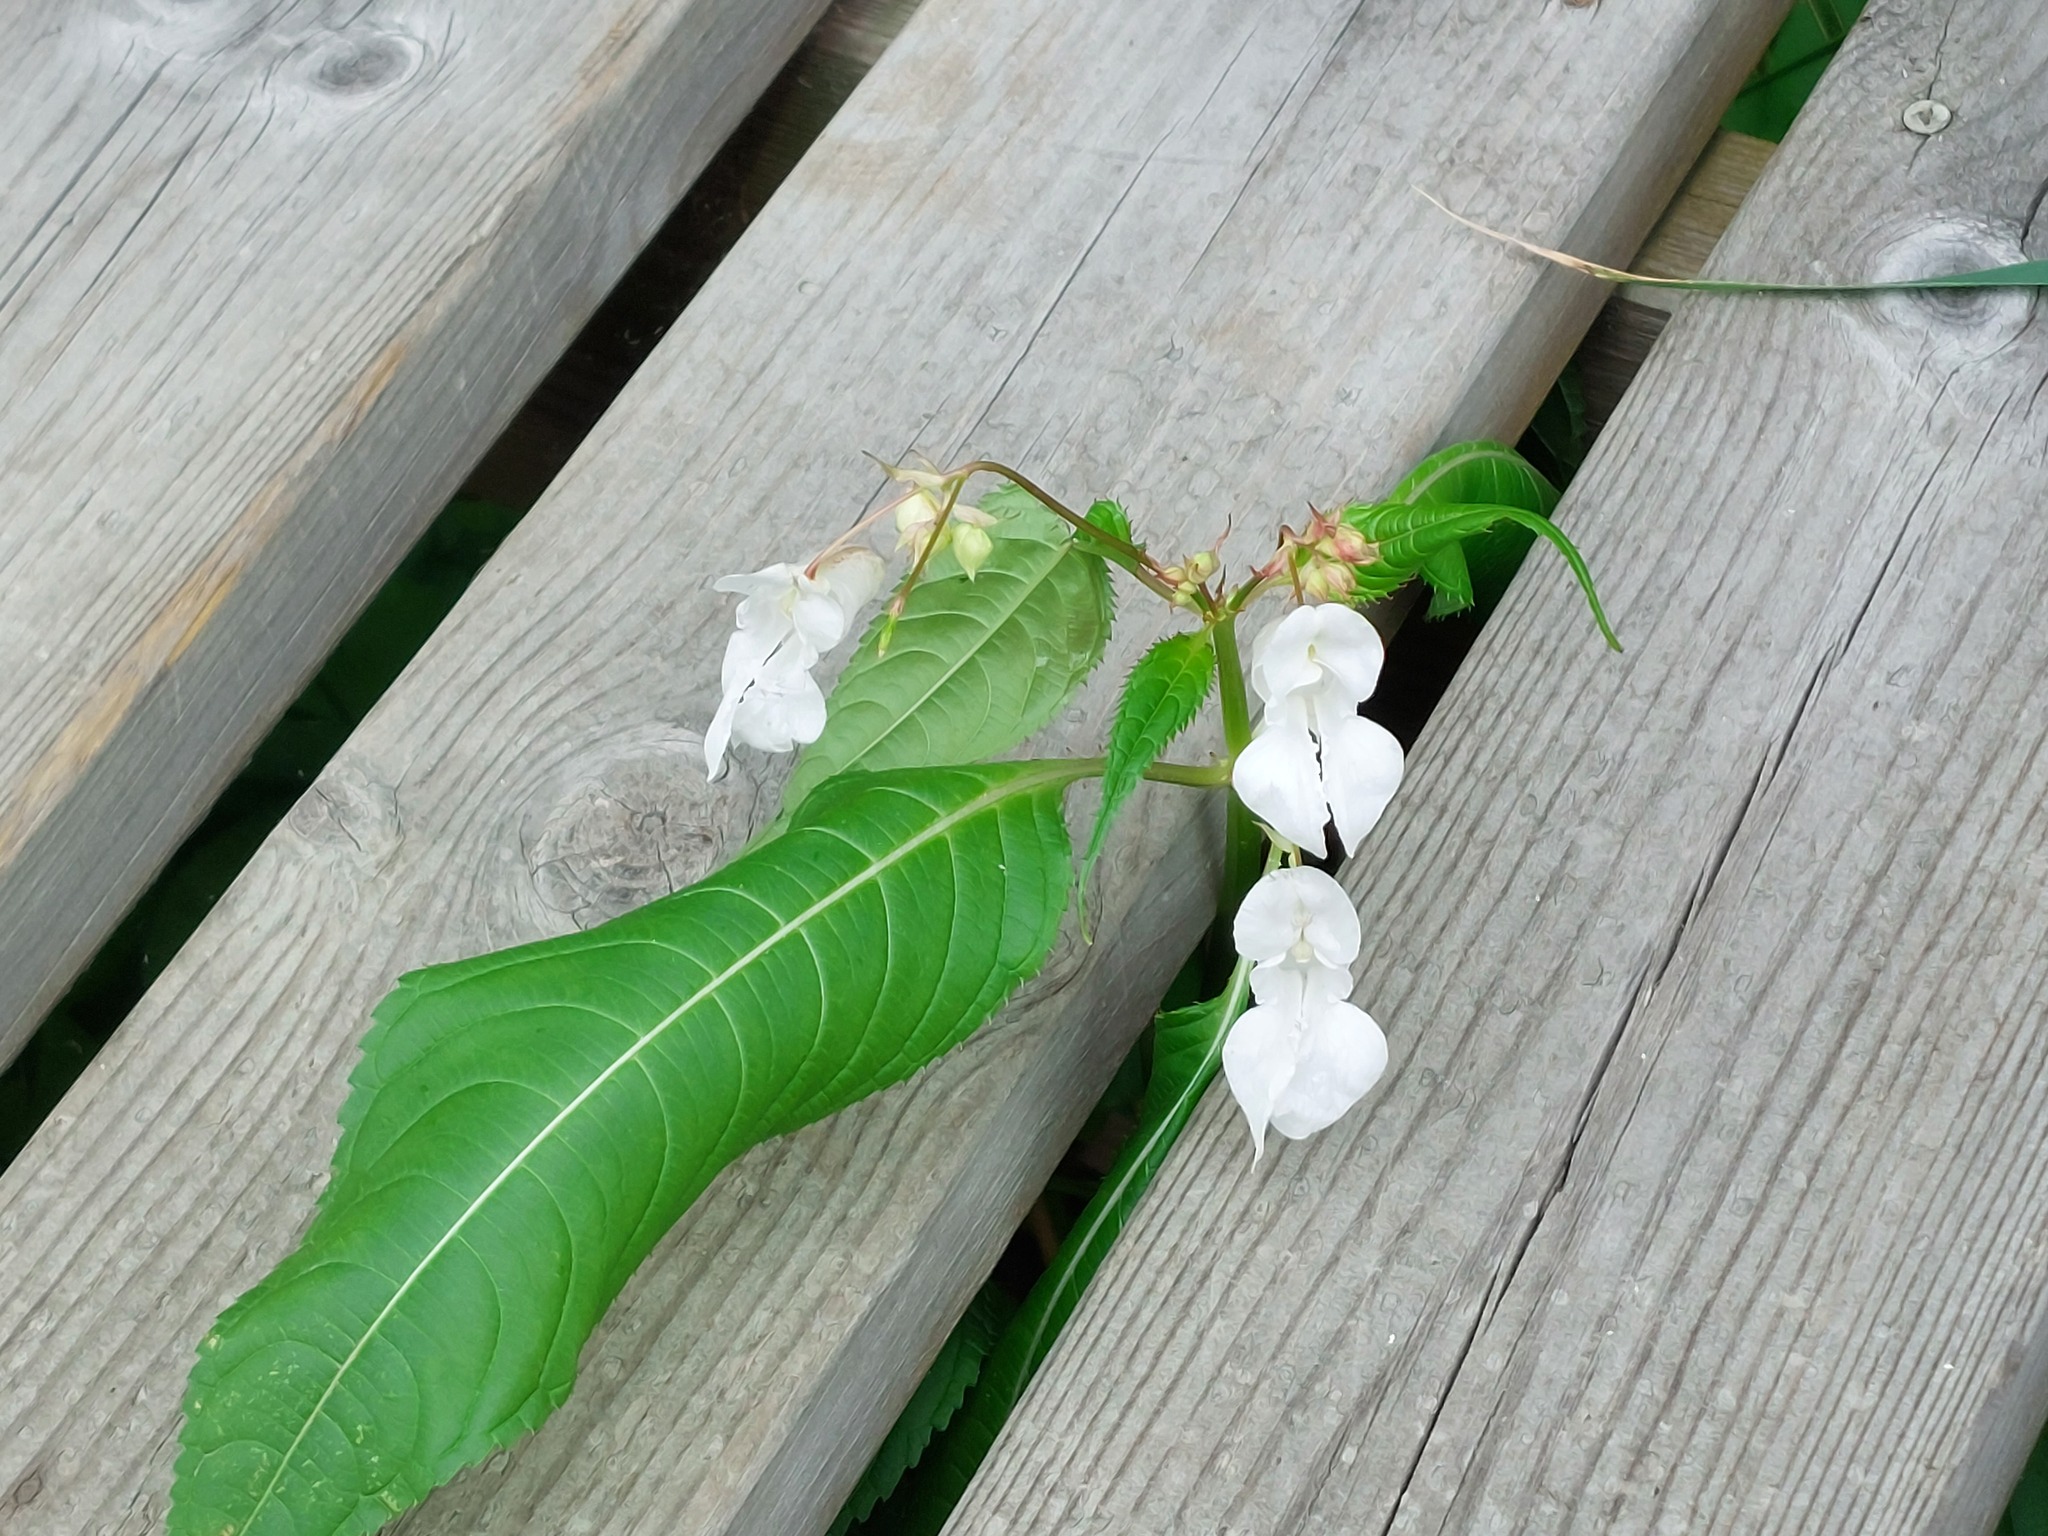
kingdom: Plantae
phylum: Tracheophyta
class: Magnoliopsida
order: Ericales
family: Balsaminaceae
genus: Impatiens
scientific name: Impatiens glandulifera
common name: Himalayan balsam
